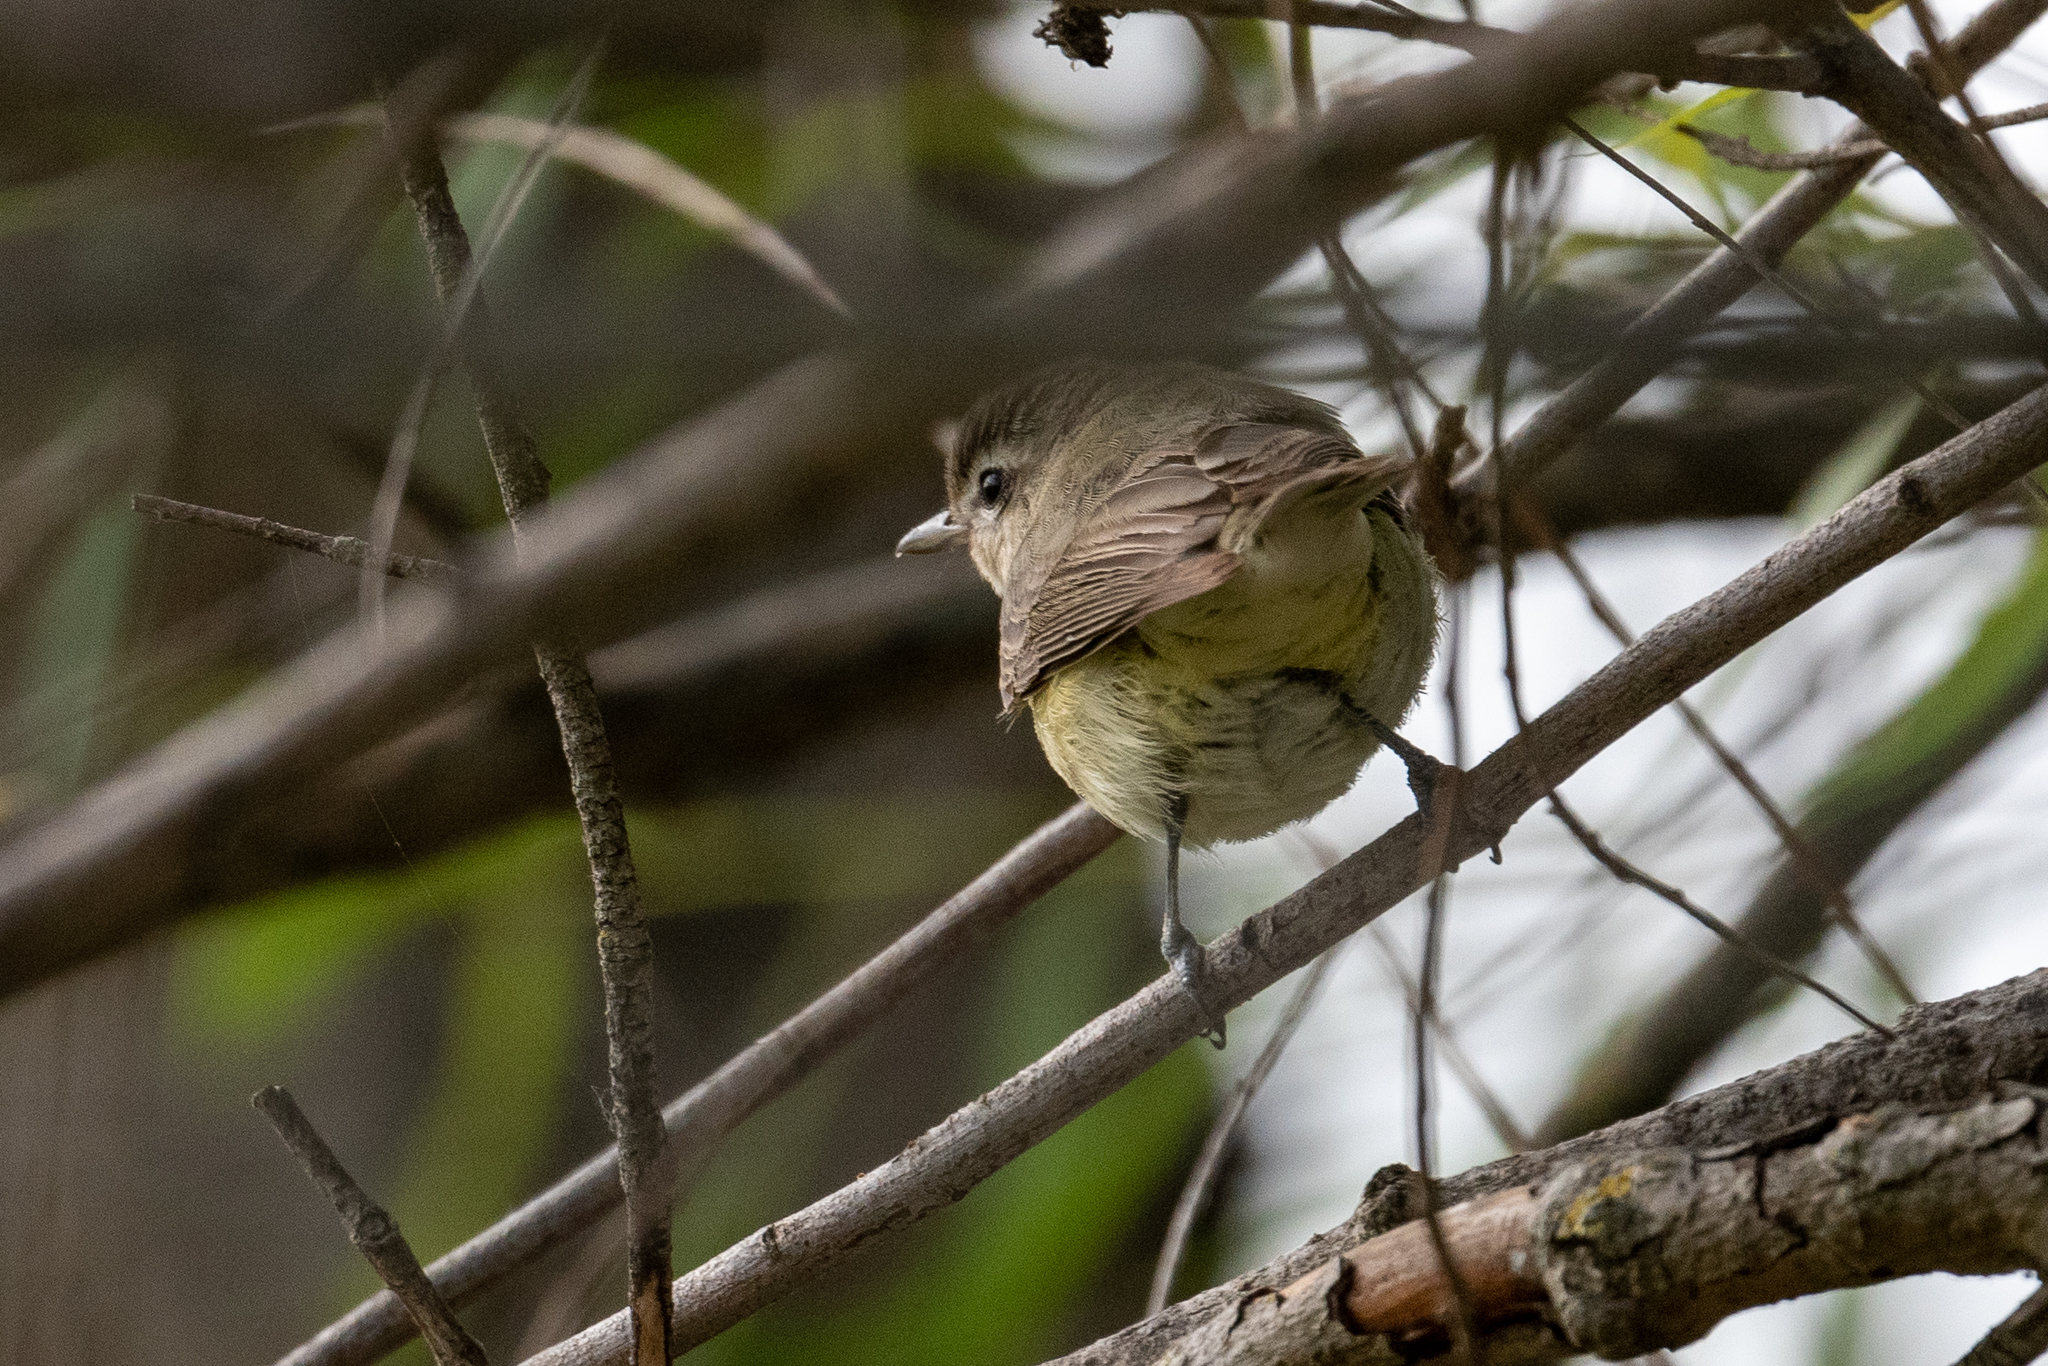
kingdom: Animalia
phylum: Chordata
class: Aves
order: Passeriformes
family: Vireonidae
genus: Vireo
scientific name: Vireo gilvus
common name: Warbling vireo
